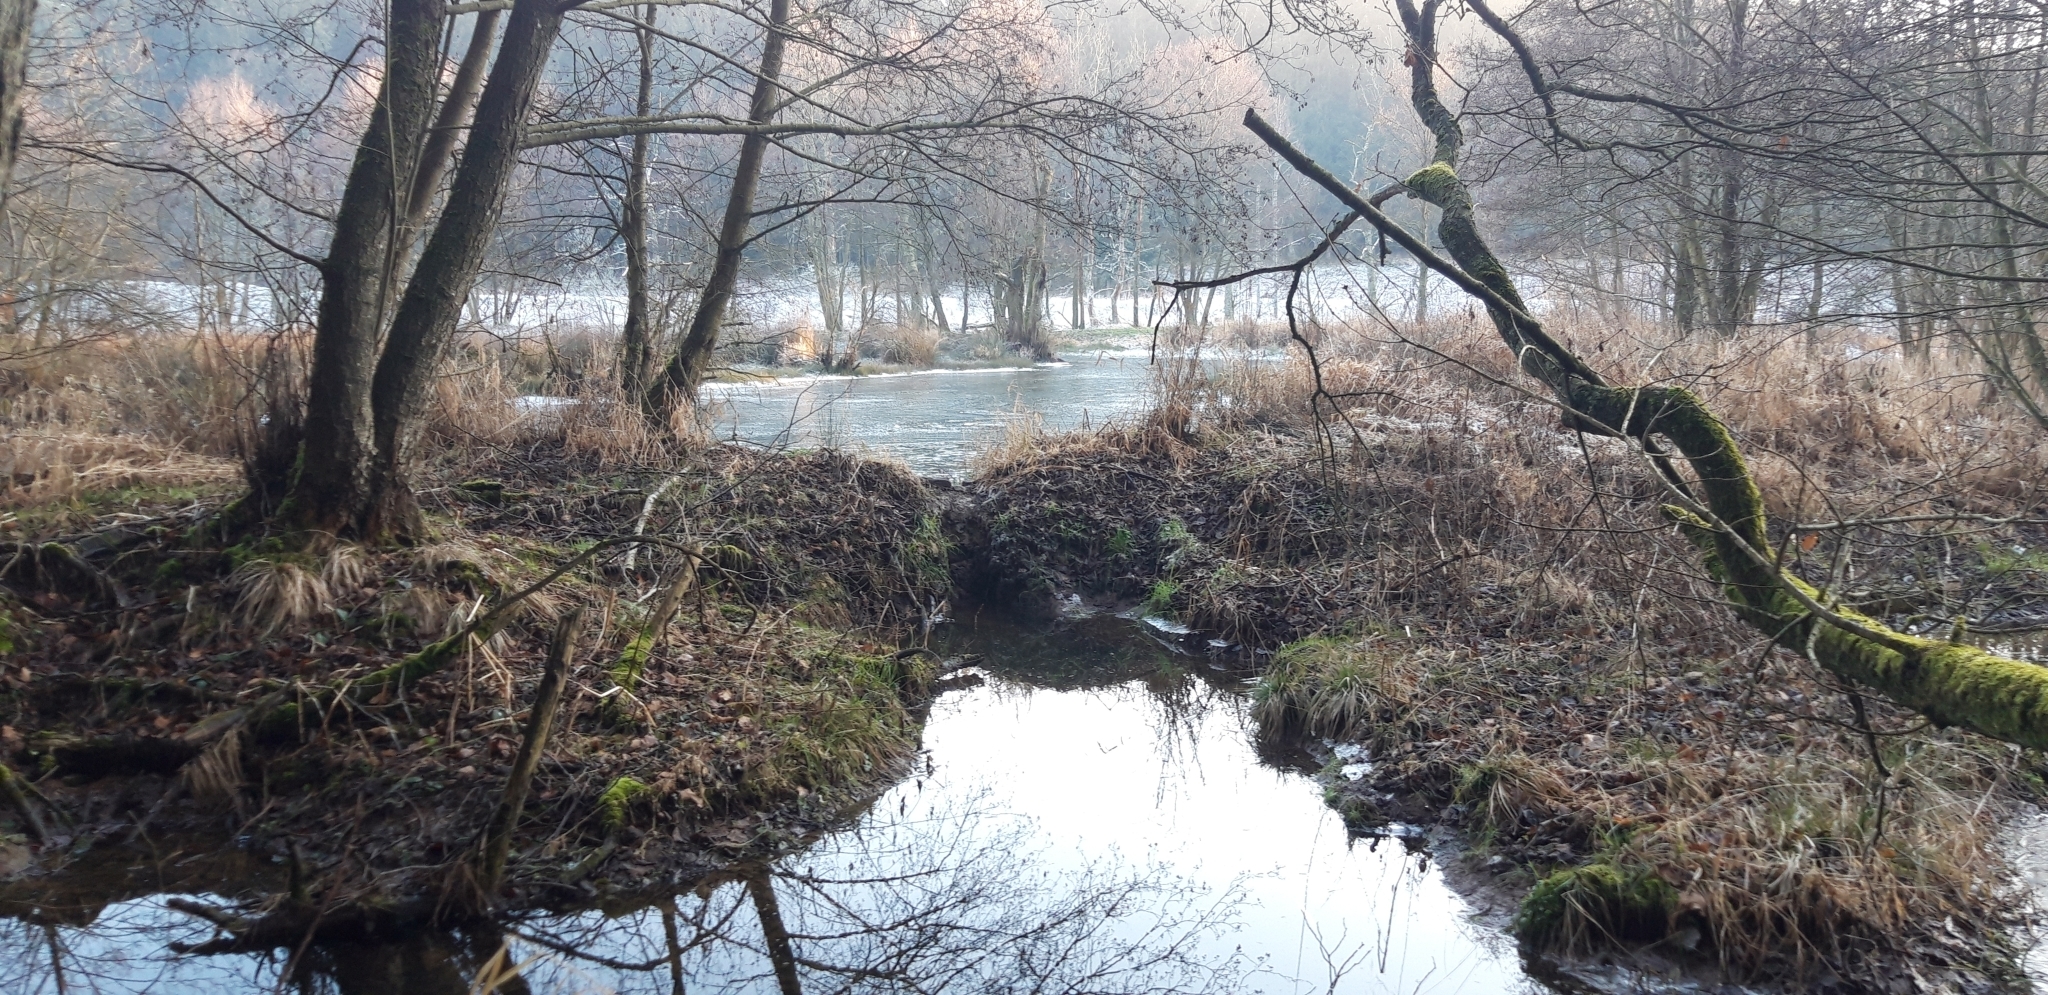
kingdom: Animalia
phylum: Chordata
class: Mammalia
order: Rodentia
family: Castoridae
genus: Castor
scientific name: Castor fiber
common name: Eurasian beaver
